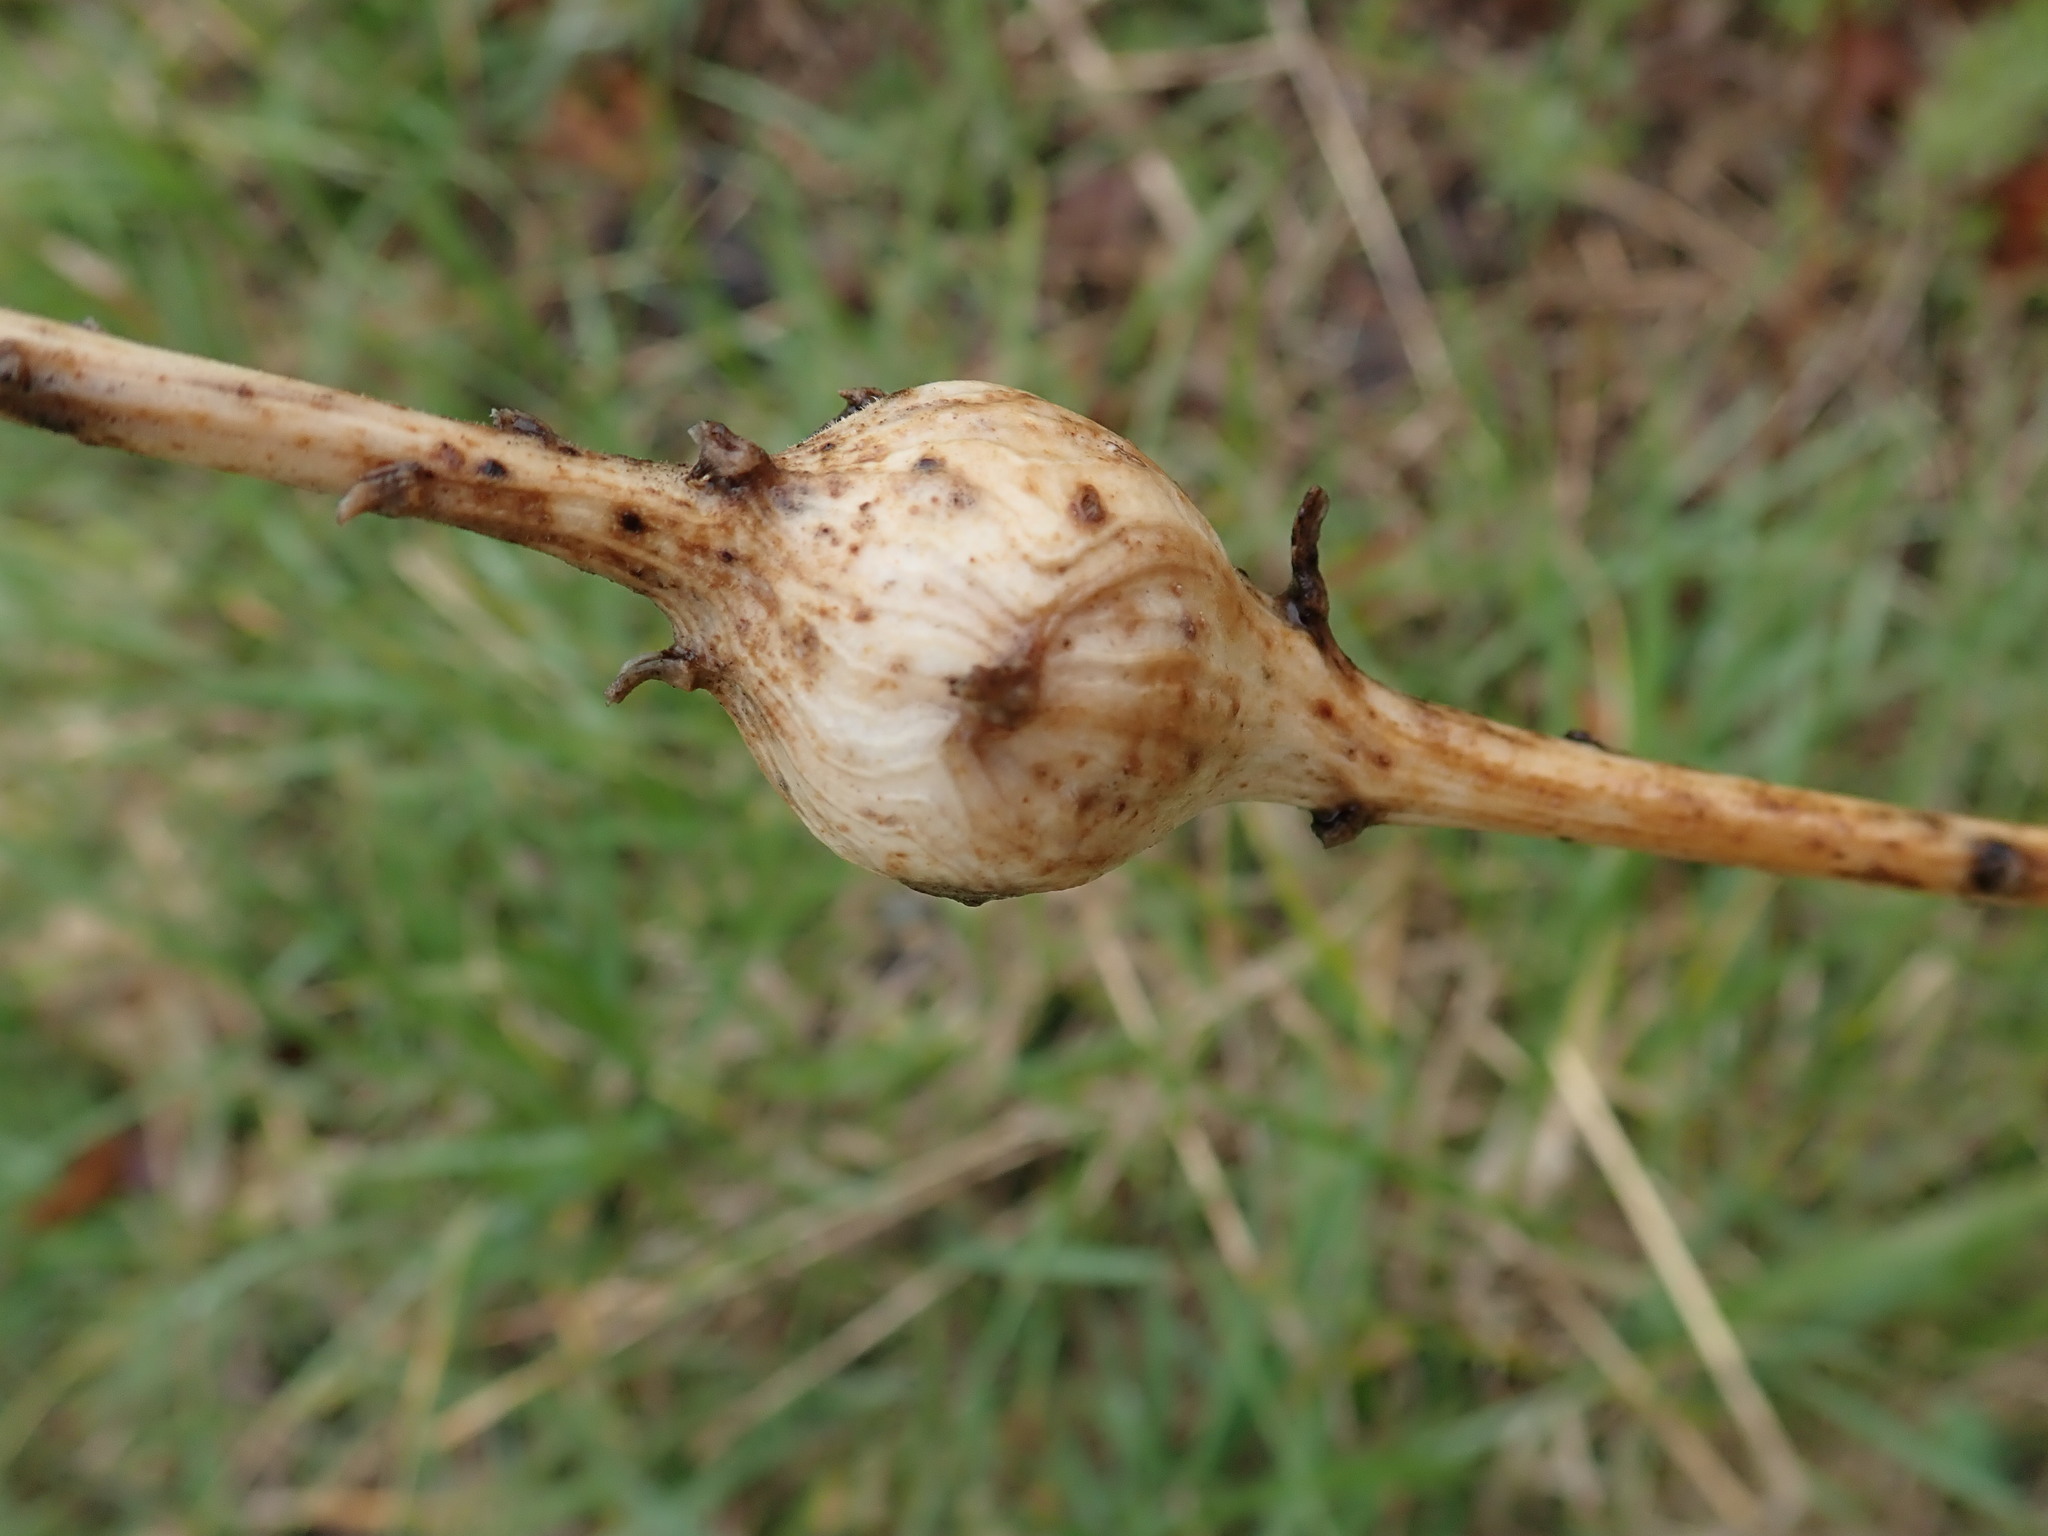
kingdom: Animalia
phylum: Arthropoda
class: Insecta
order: Diptera
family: Tephritidae
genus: Eurosta
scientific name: Eurosta solidaginis
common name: Goldenrod gall fly
